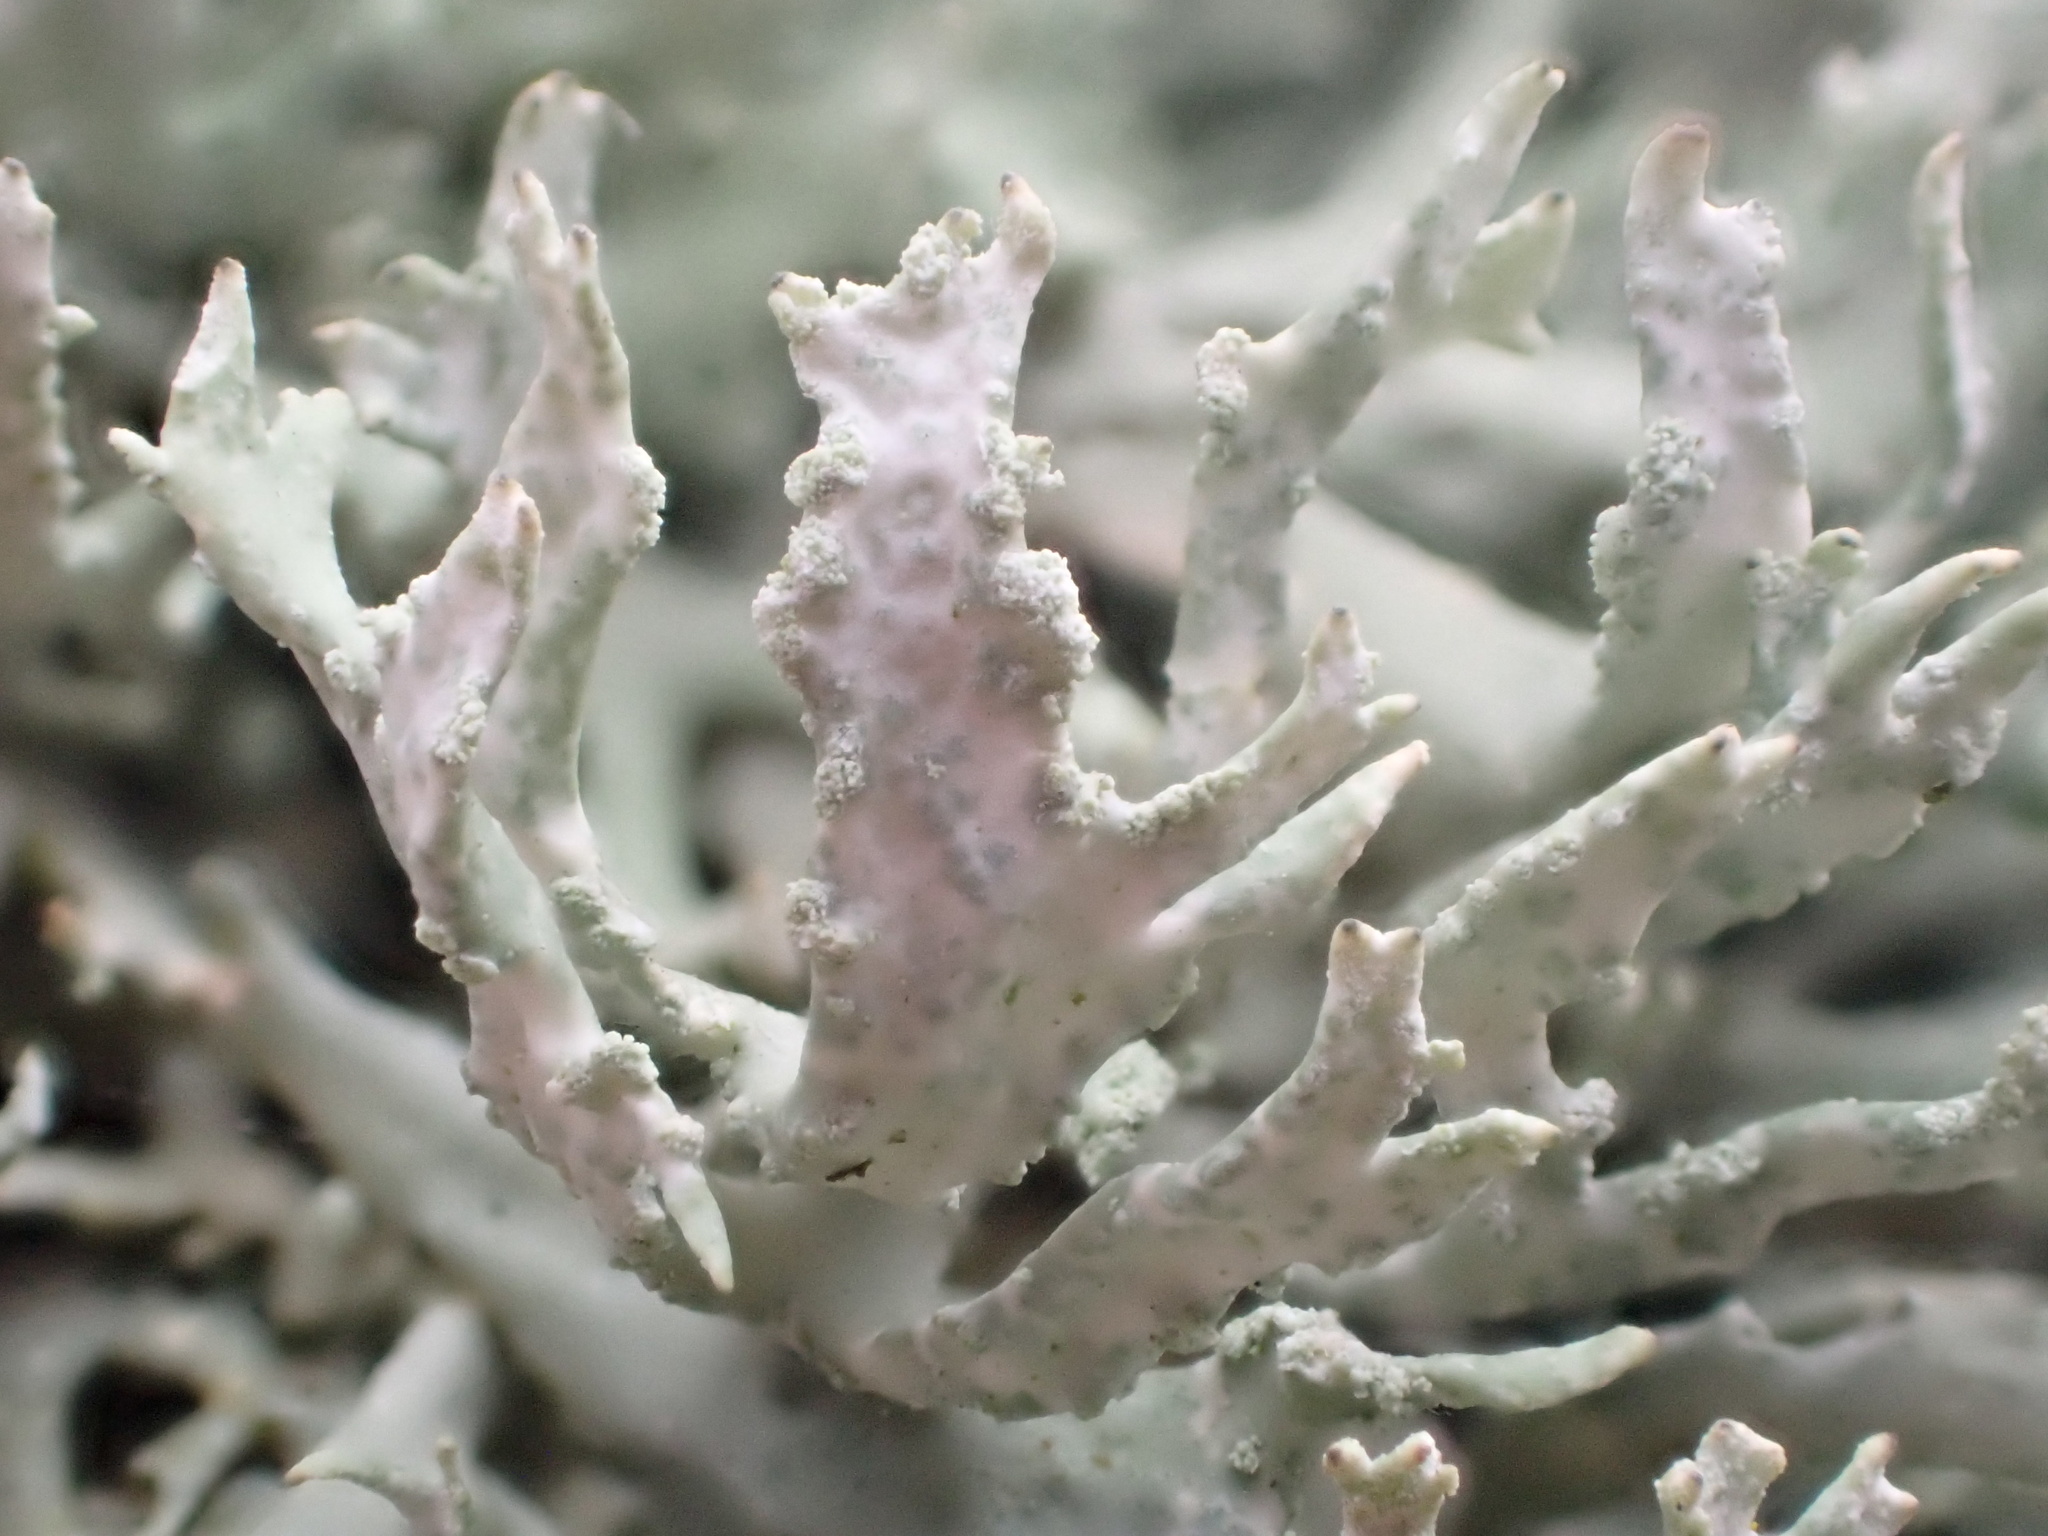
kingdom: Fungi
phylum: Ascomycota
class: Lecanoromycetes
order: Lecanorales
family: Parmeliaceae
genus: Evernia
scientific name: Evernia prunastri
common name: Oak moss
